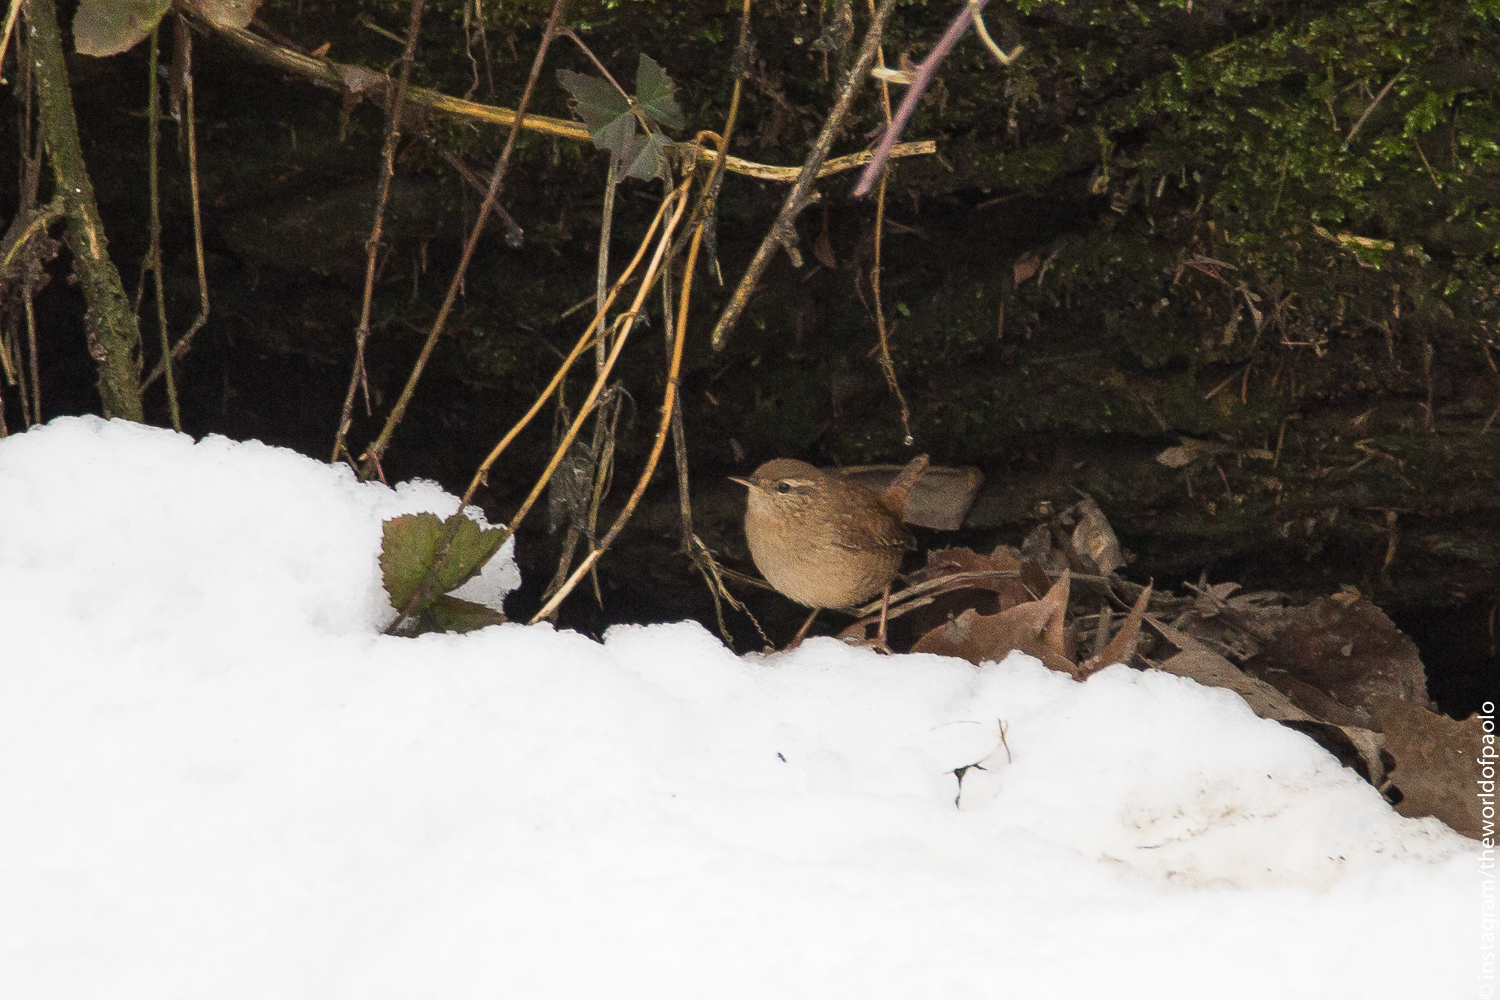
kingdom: Animalia
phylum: Chordata
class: Aves
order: Passeriformes
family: Troglodytidae
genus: Troglodytes
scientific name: Troglodytes troglodytes
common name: Eurasian wren
